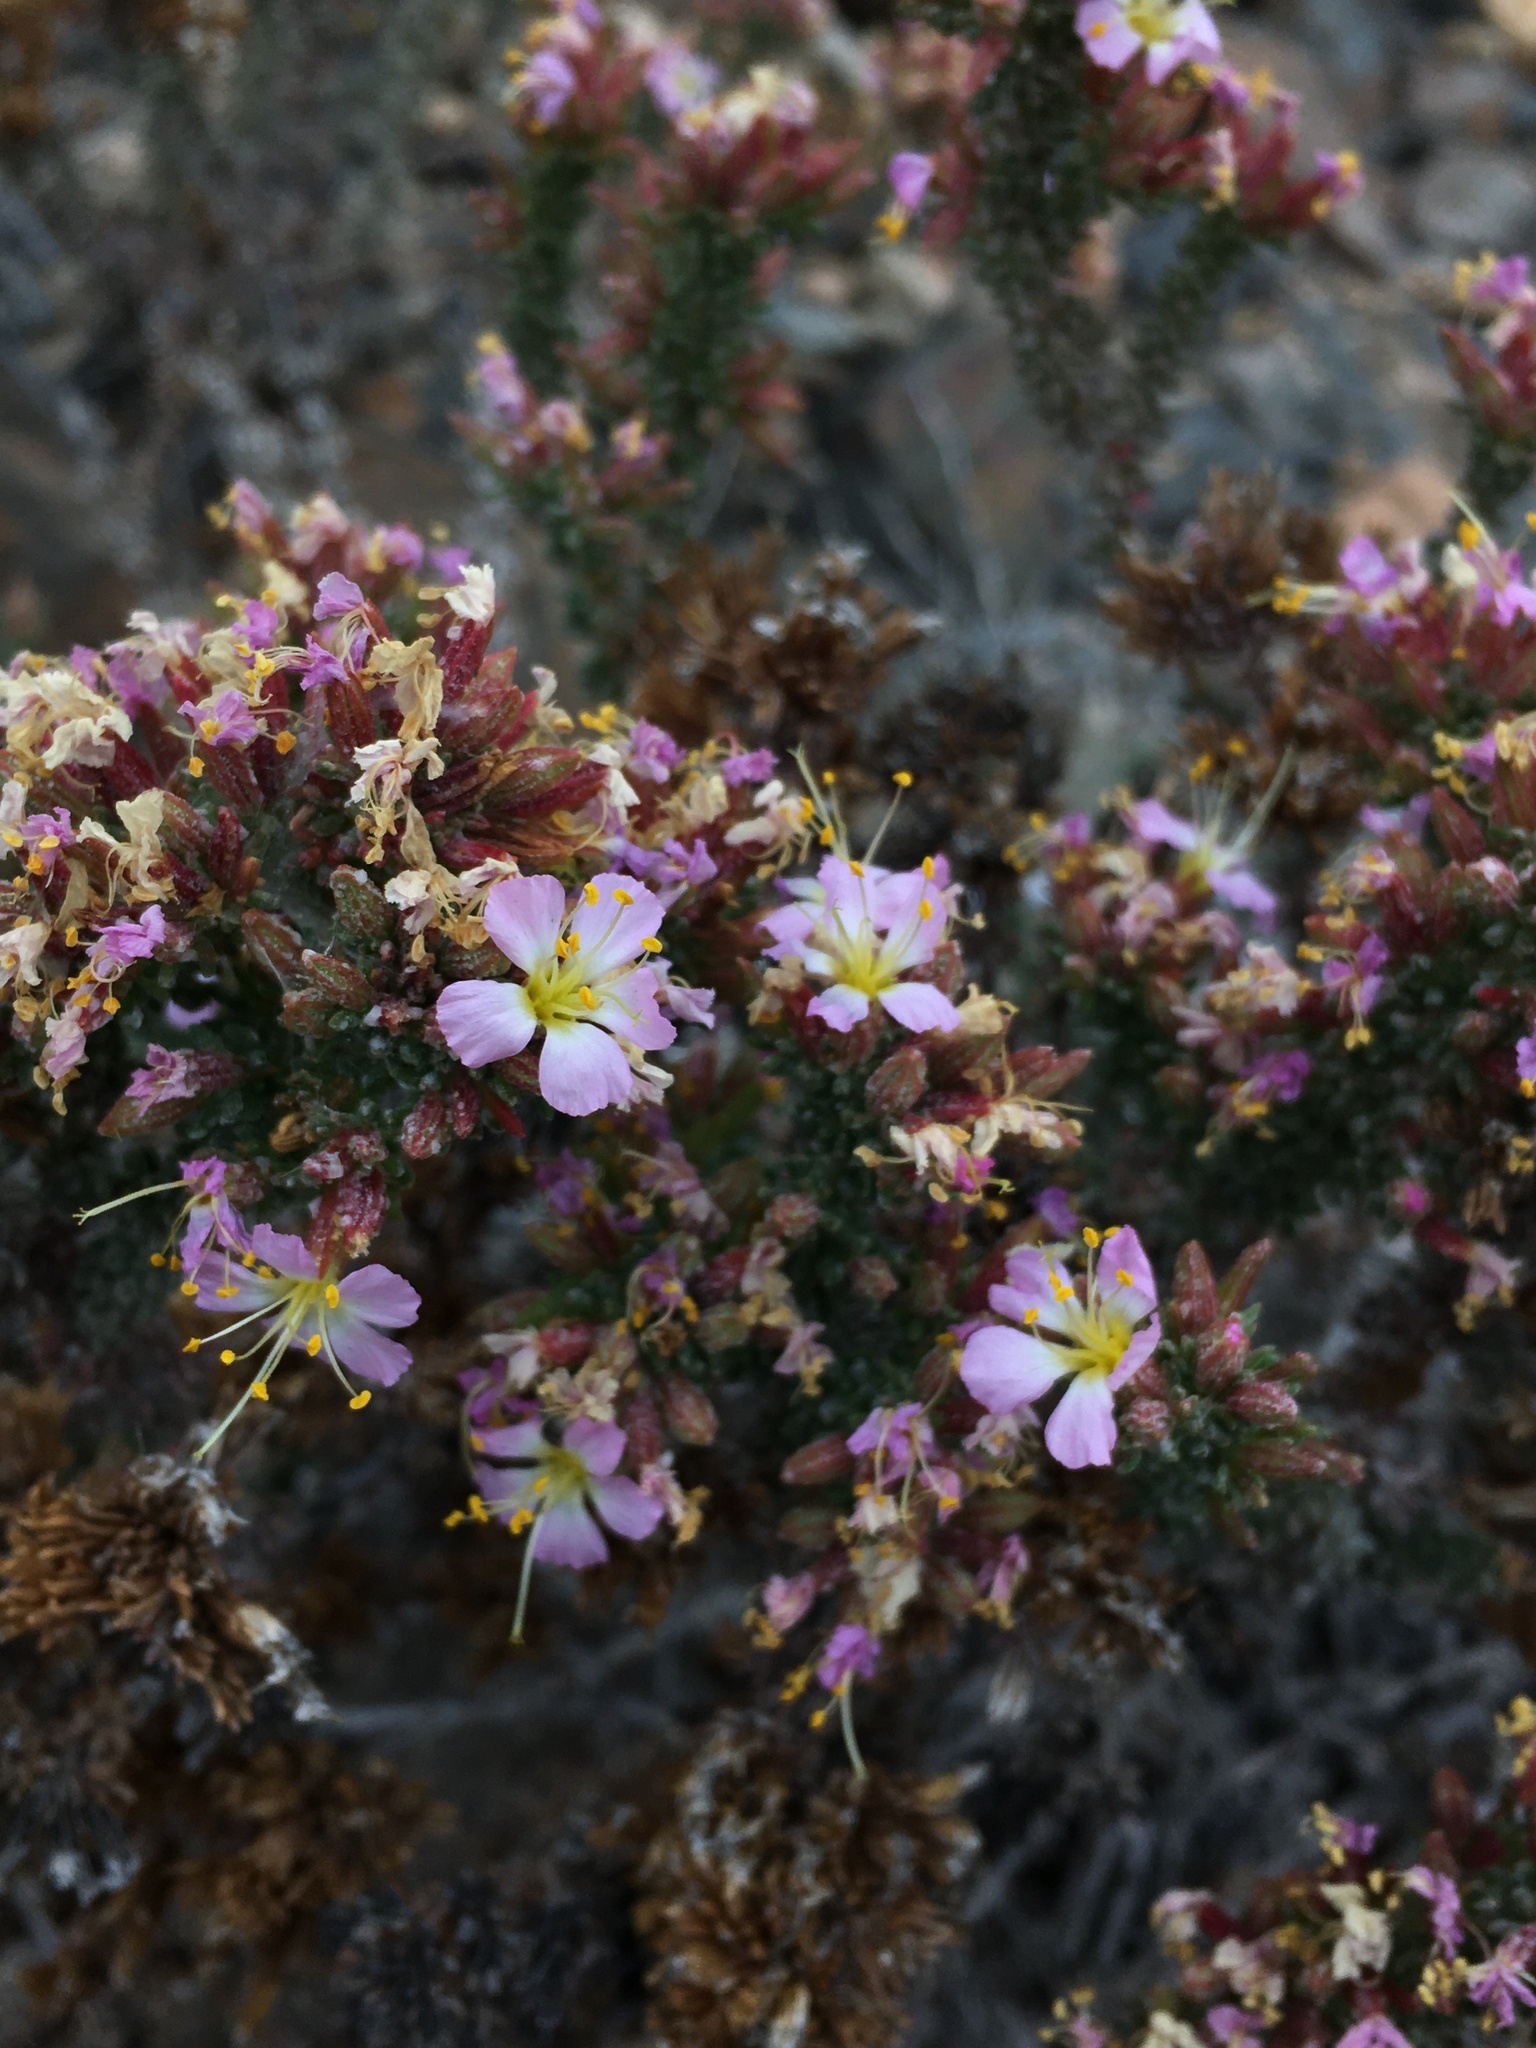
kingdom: Plantae
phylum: Tracheophyta
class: Magnoliopsida
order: Caryophyllales
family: Frankeniaceae
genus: Frankenia
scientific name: Frankenia chilensis
